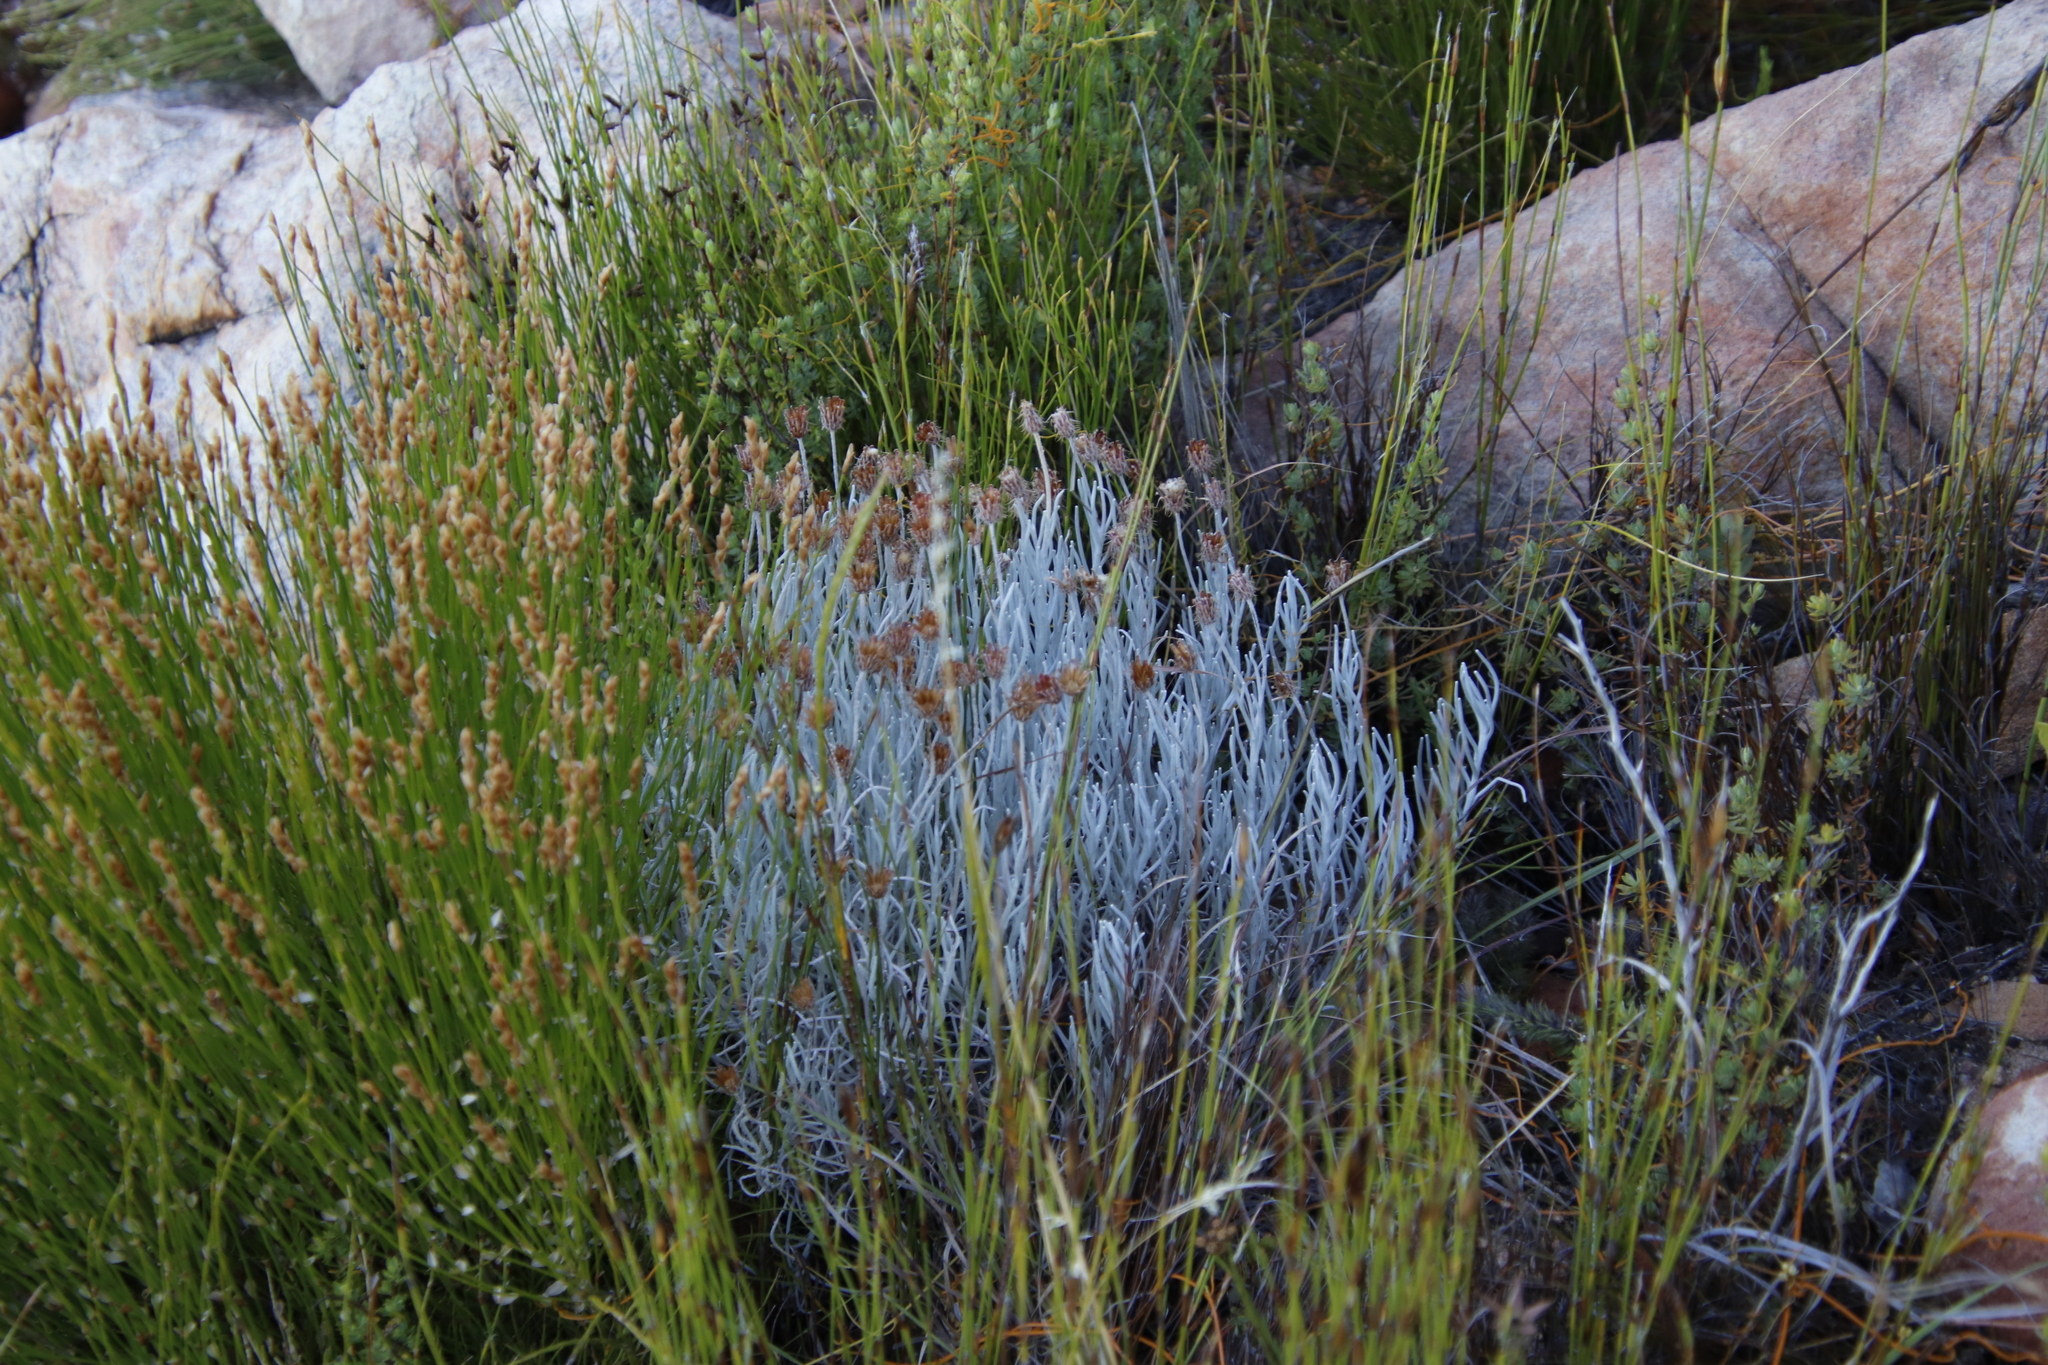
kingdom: Plantae
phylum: Tracheophyta
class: Magnoliopsida
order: Asterales
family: Asteraceae
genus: Syncarpha
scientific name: Syncarpha gnaphaloides
